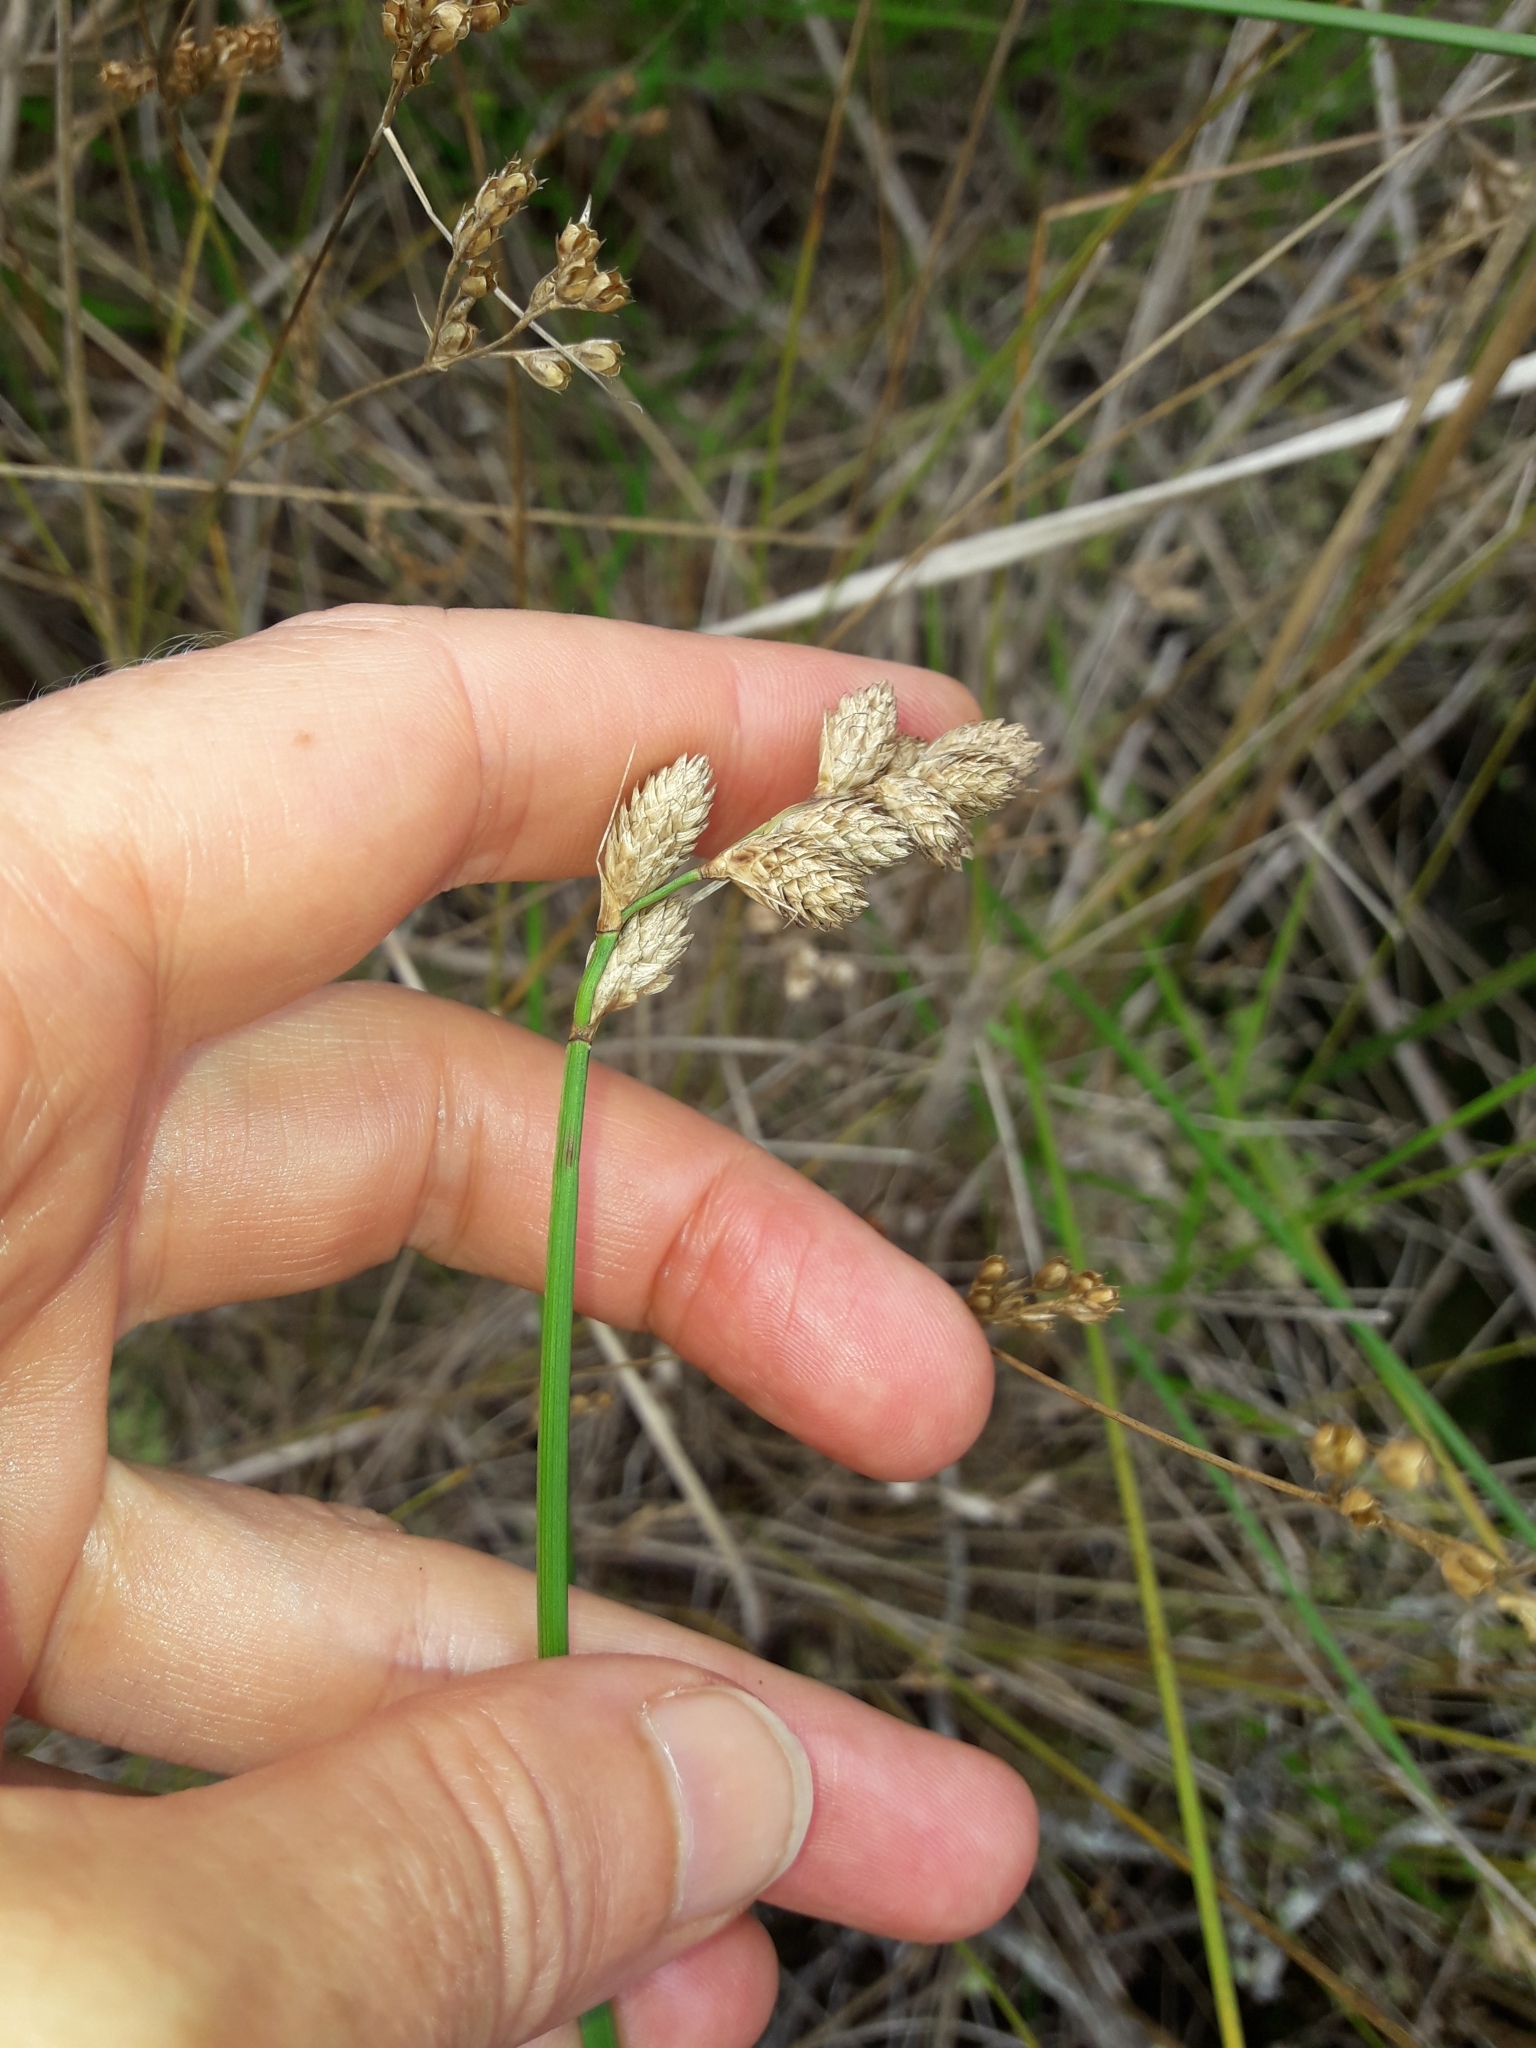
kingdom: Plantae
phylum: Tracheophyta
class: Liliopsida
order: Poales
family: Cyperaceae
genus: Carex
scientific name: Carex longii
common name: Long's sedge
